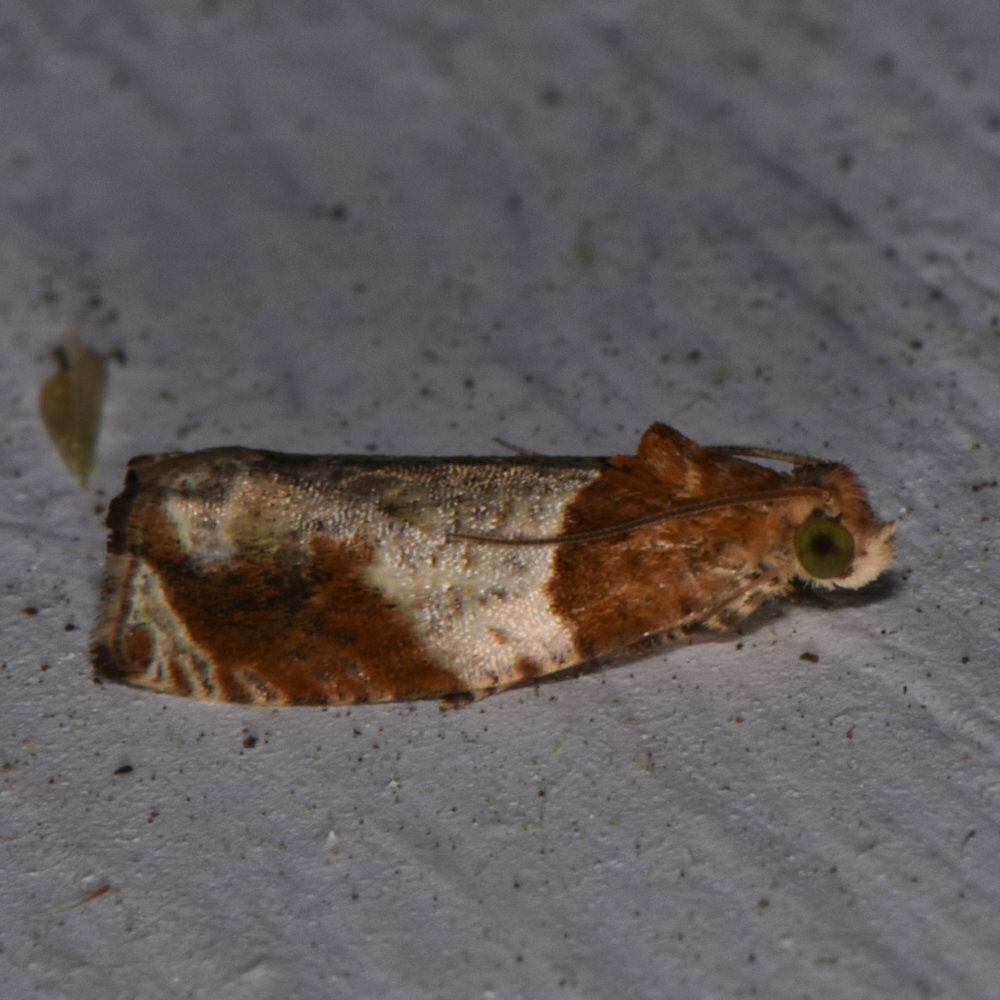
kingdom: Animalia
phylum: Arthropoda
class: Insecta
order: Lepidoptera
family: Tortricidae
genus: Olethreutes
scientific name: Olethreutes ferriferana
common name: Hydrangea leaftier moth
